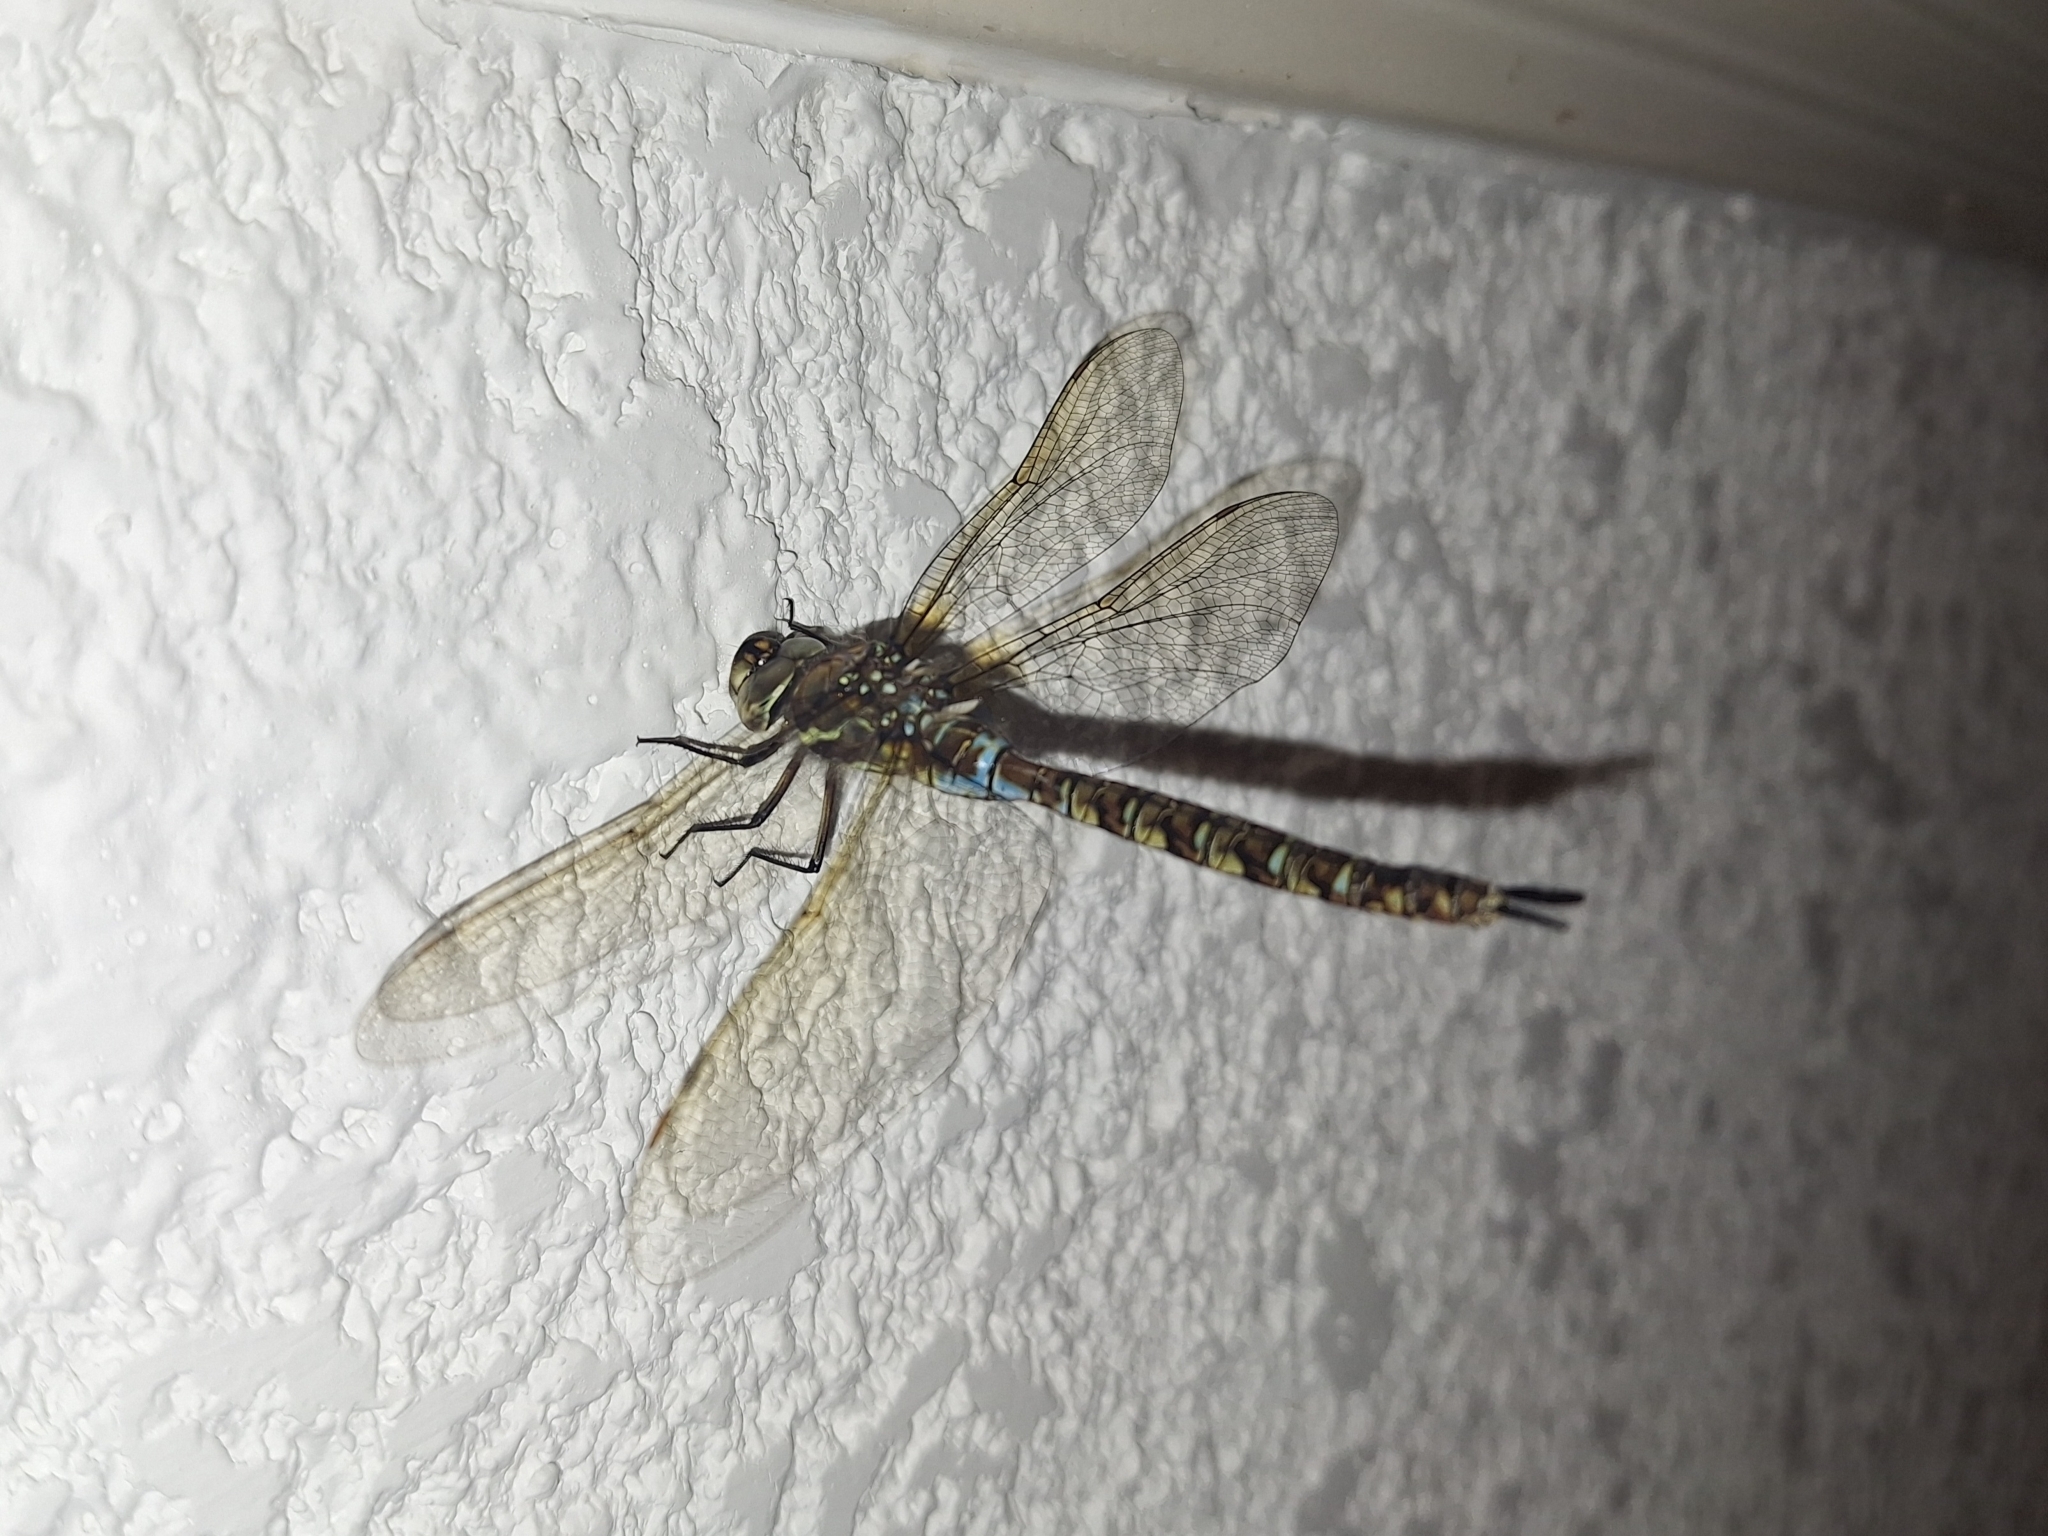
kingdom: Animalia
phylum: Arthropoda
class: Insecta
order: Odonata
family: Aeshnidae
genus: Rhionaeschna
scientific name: Rhionaeschna marchali
